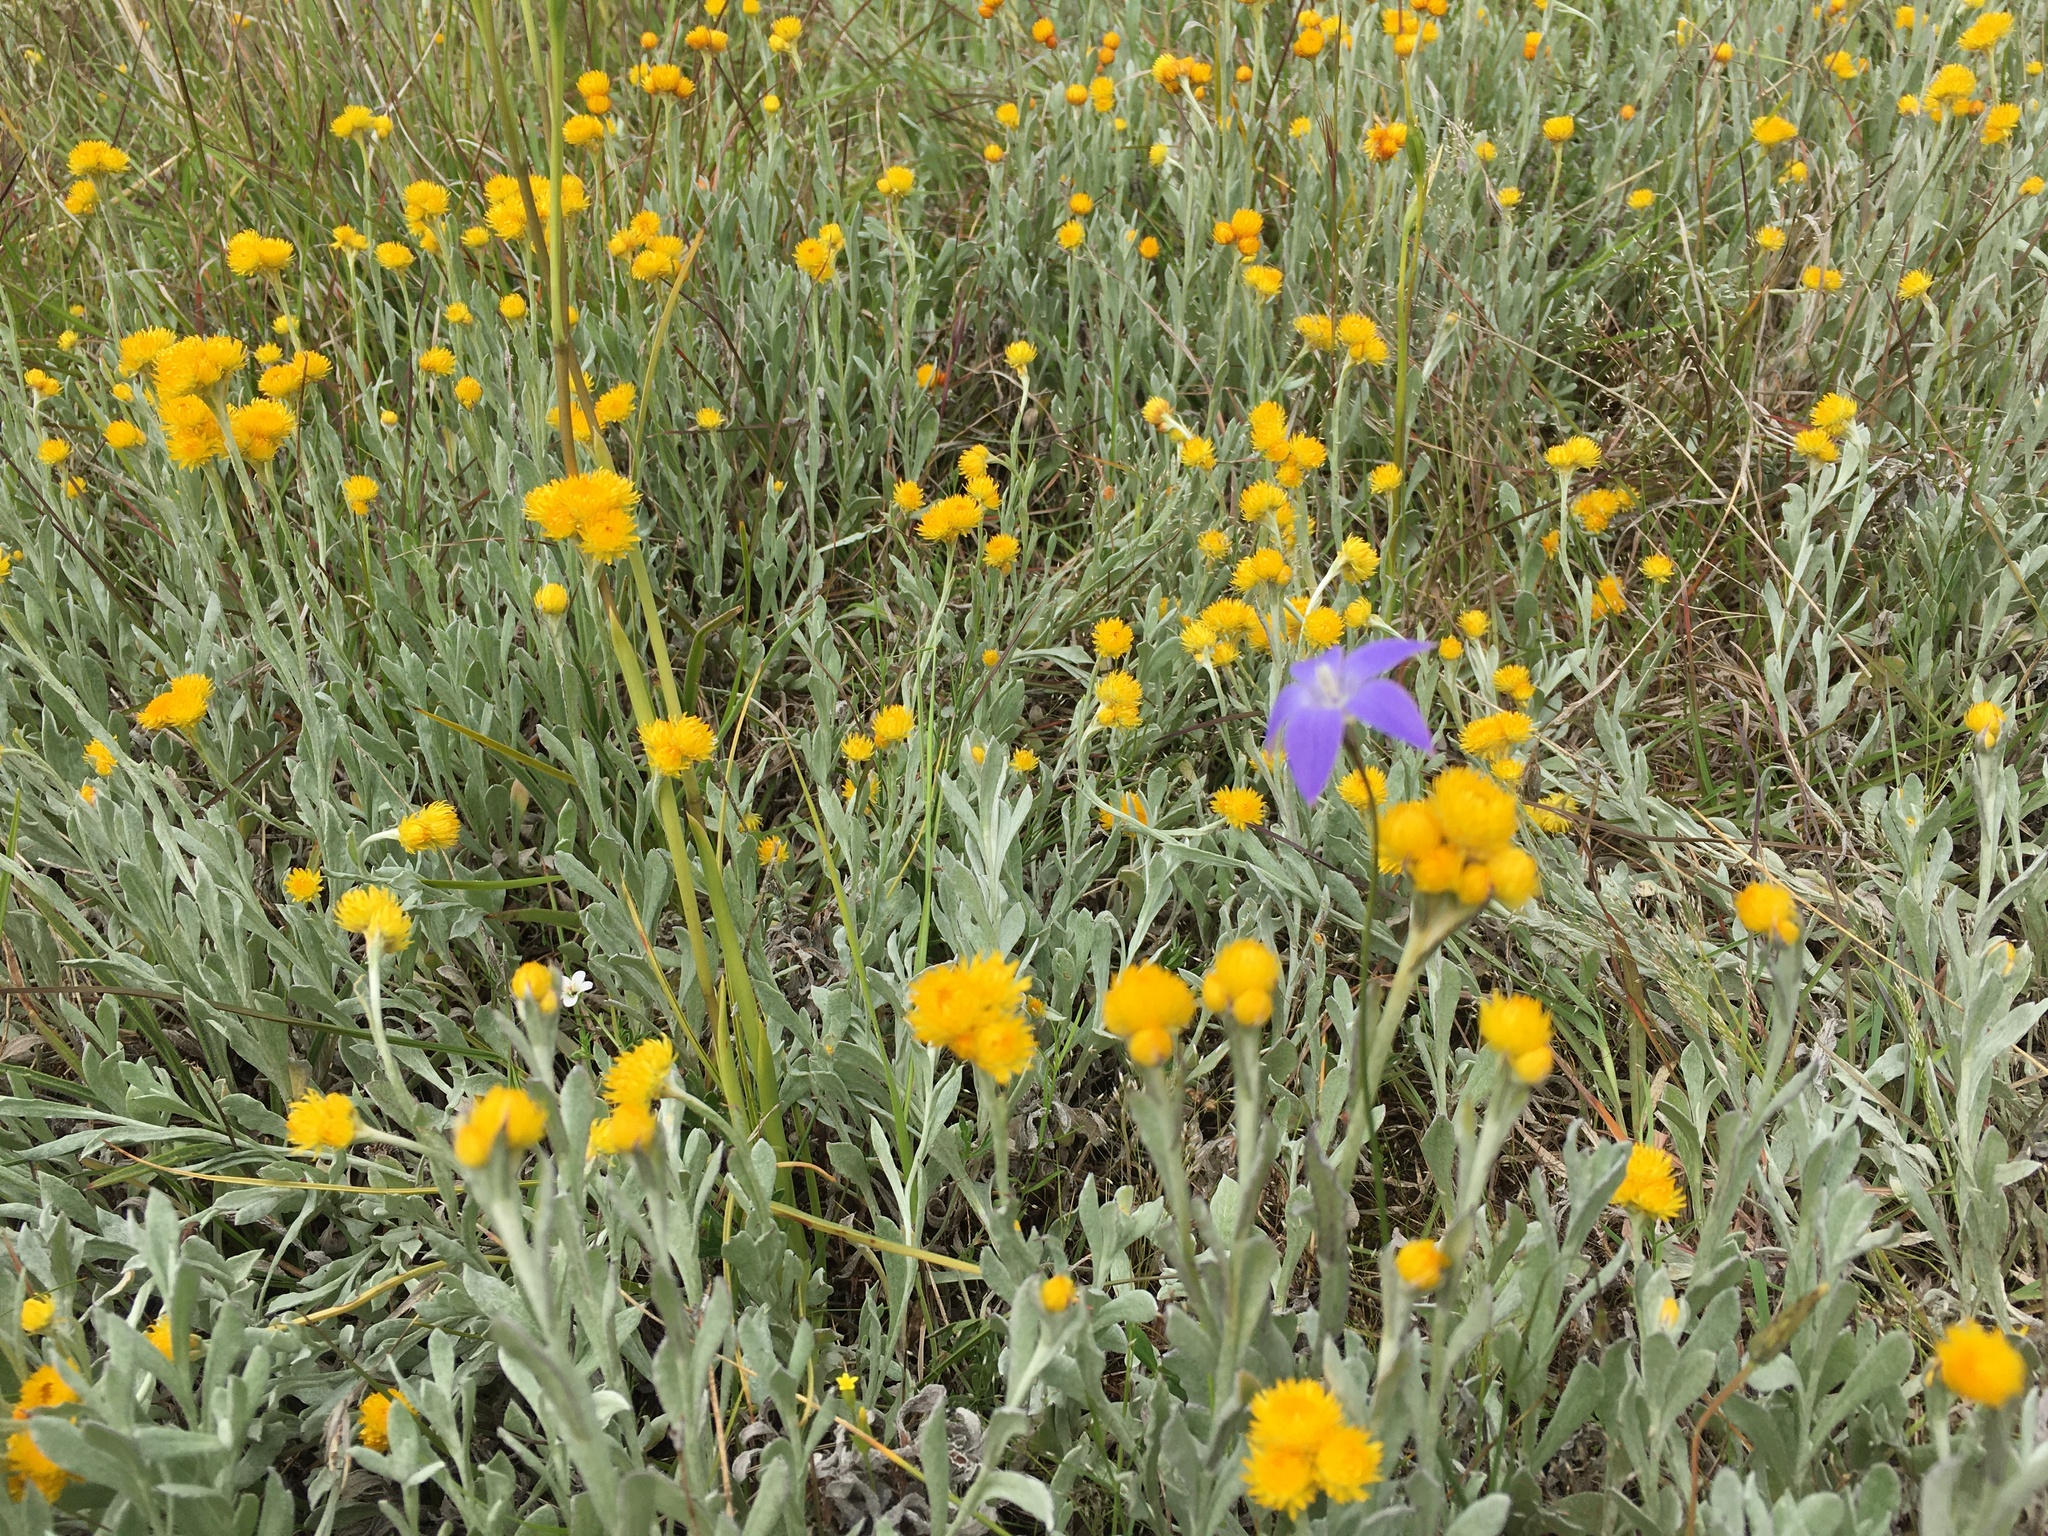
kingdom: Plantae
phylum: Tracheophyta
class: Magnoliopsida
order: Asterales
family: Asteraceae
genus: Chrysocephalum
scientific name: Chrysocephalum apiculatum
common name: Common everlasting
